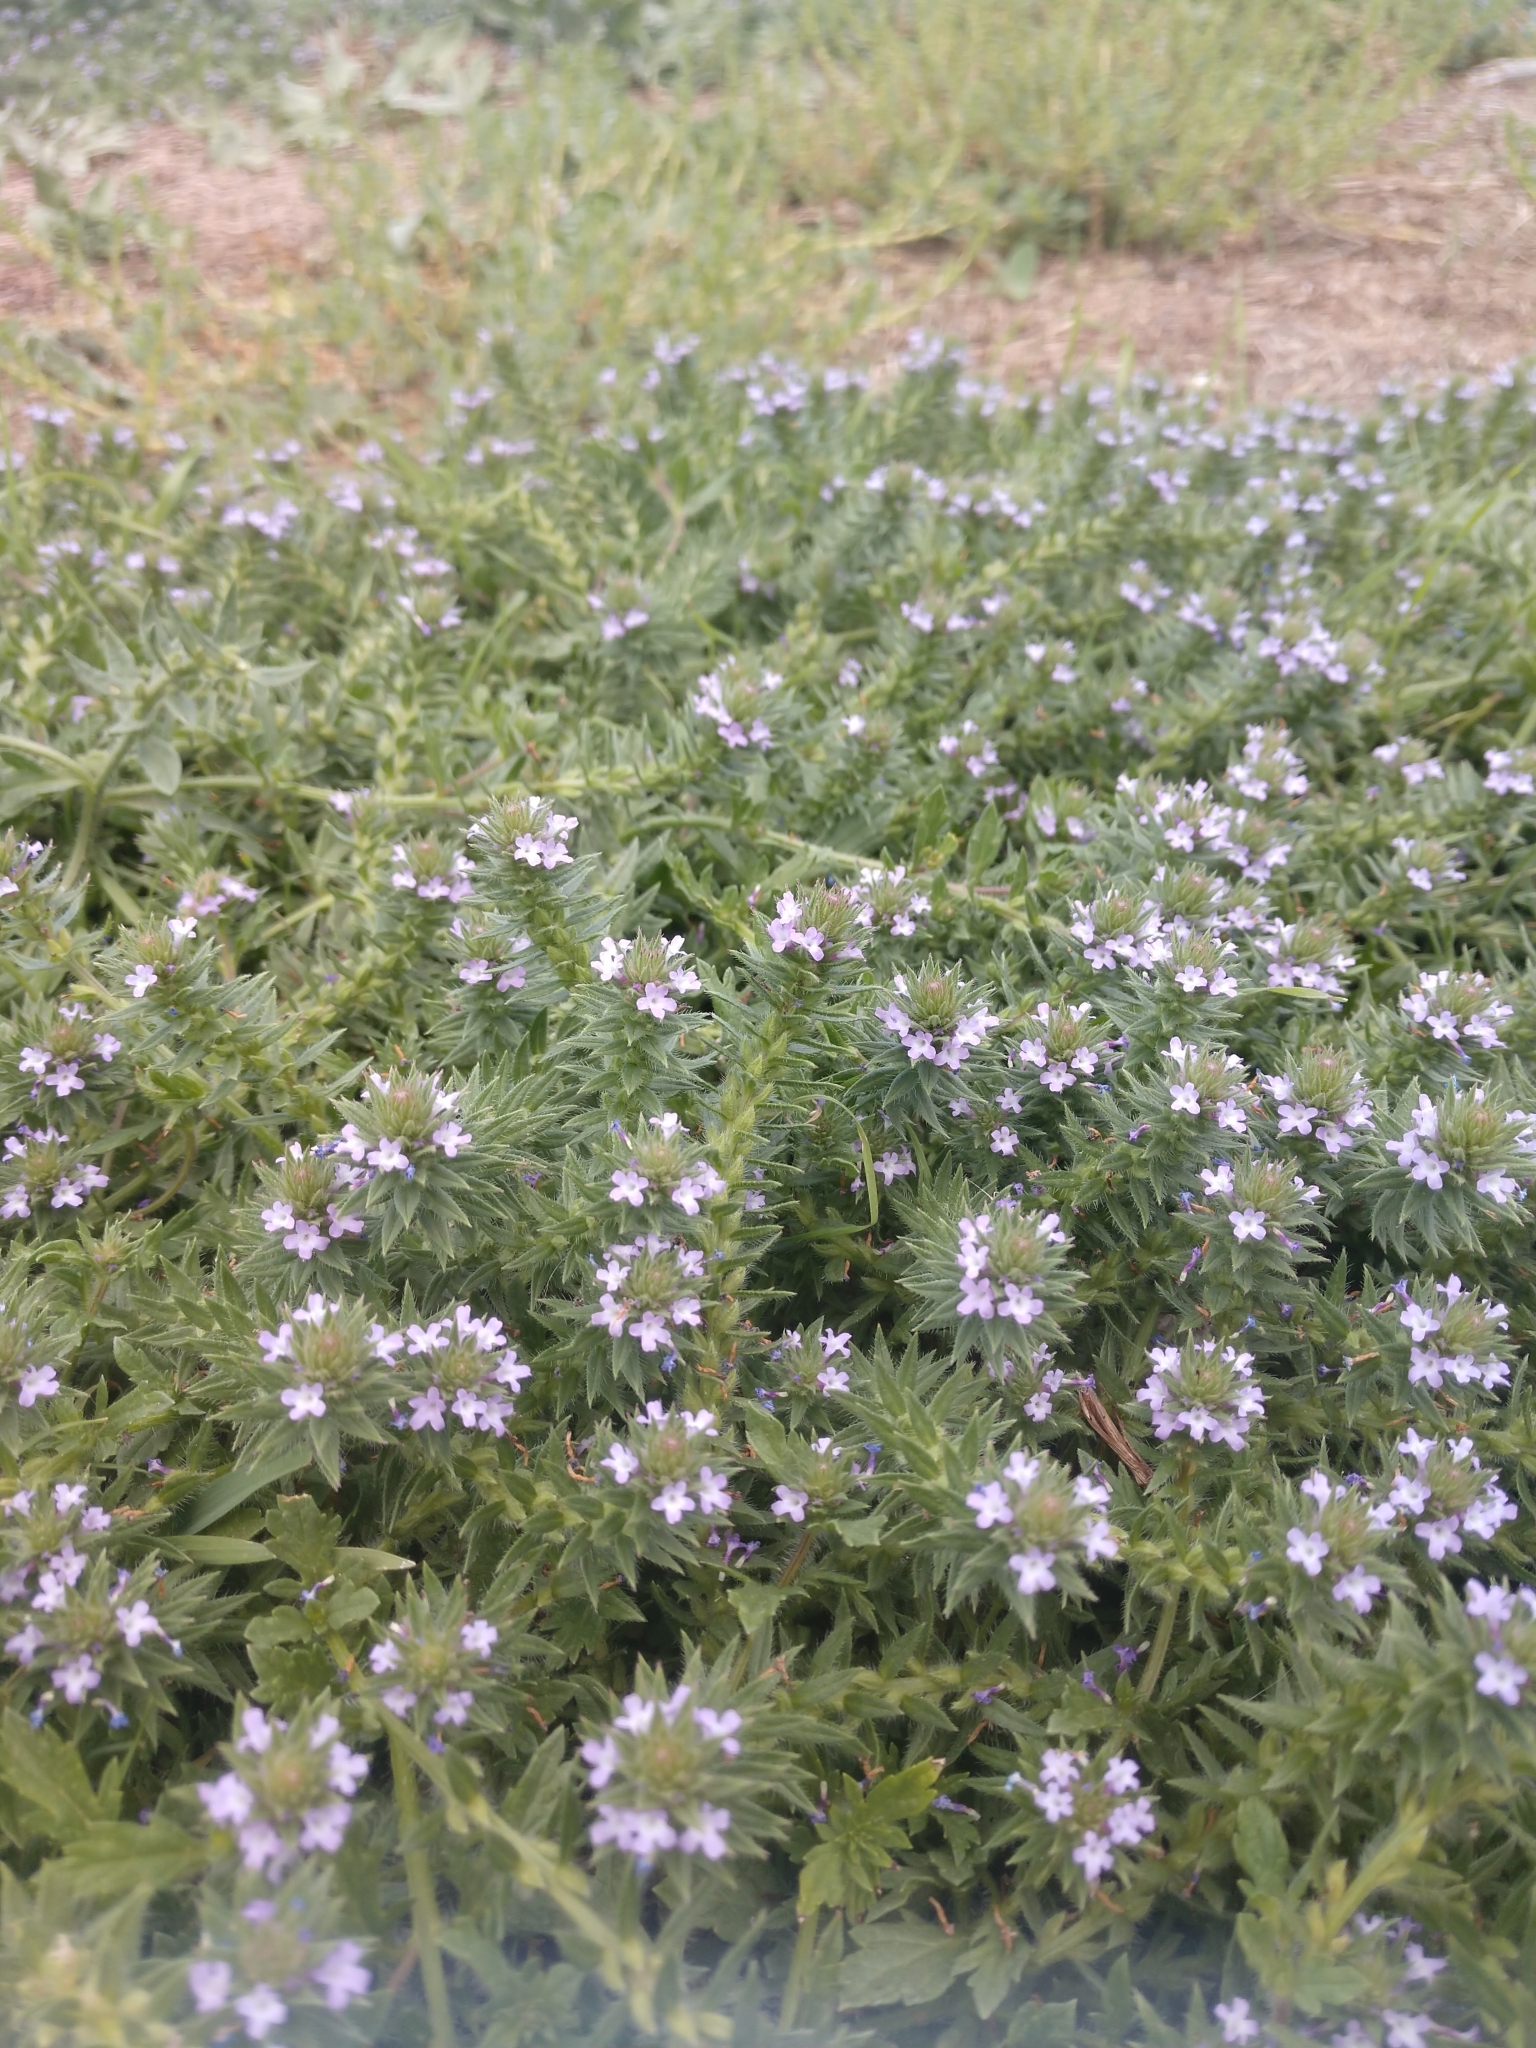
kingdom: Plantae
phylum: Tracheophyta
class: Magnoliopsida
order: Lamiales
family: Verbenaceae
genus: Verbena
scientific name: Verbena bracteata
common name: Bracted vervain
